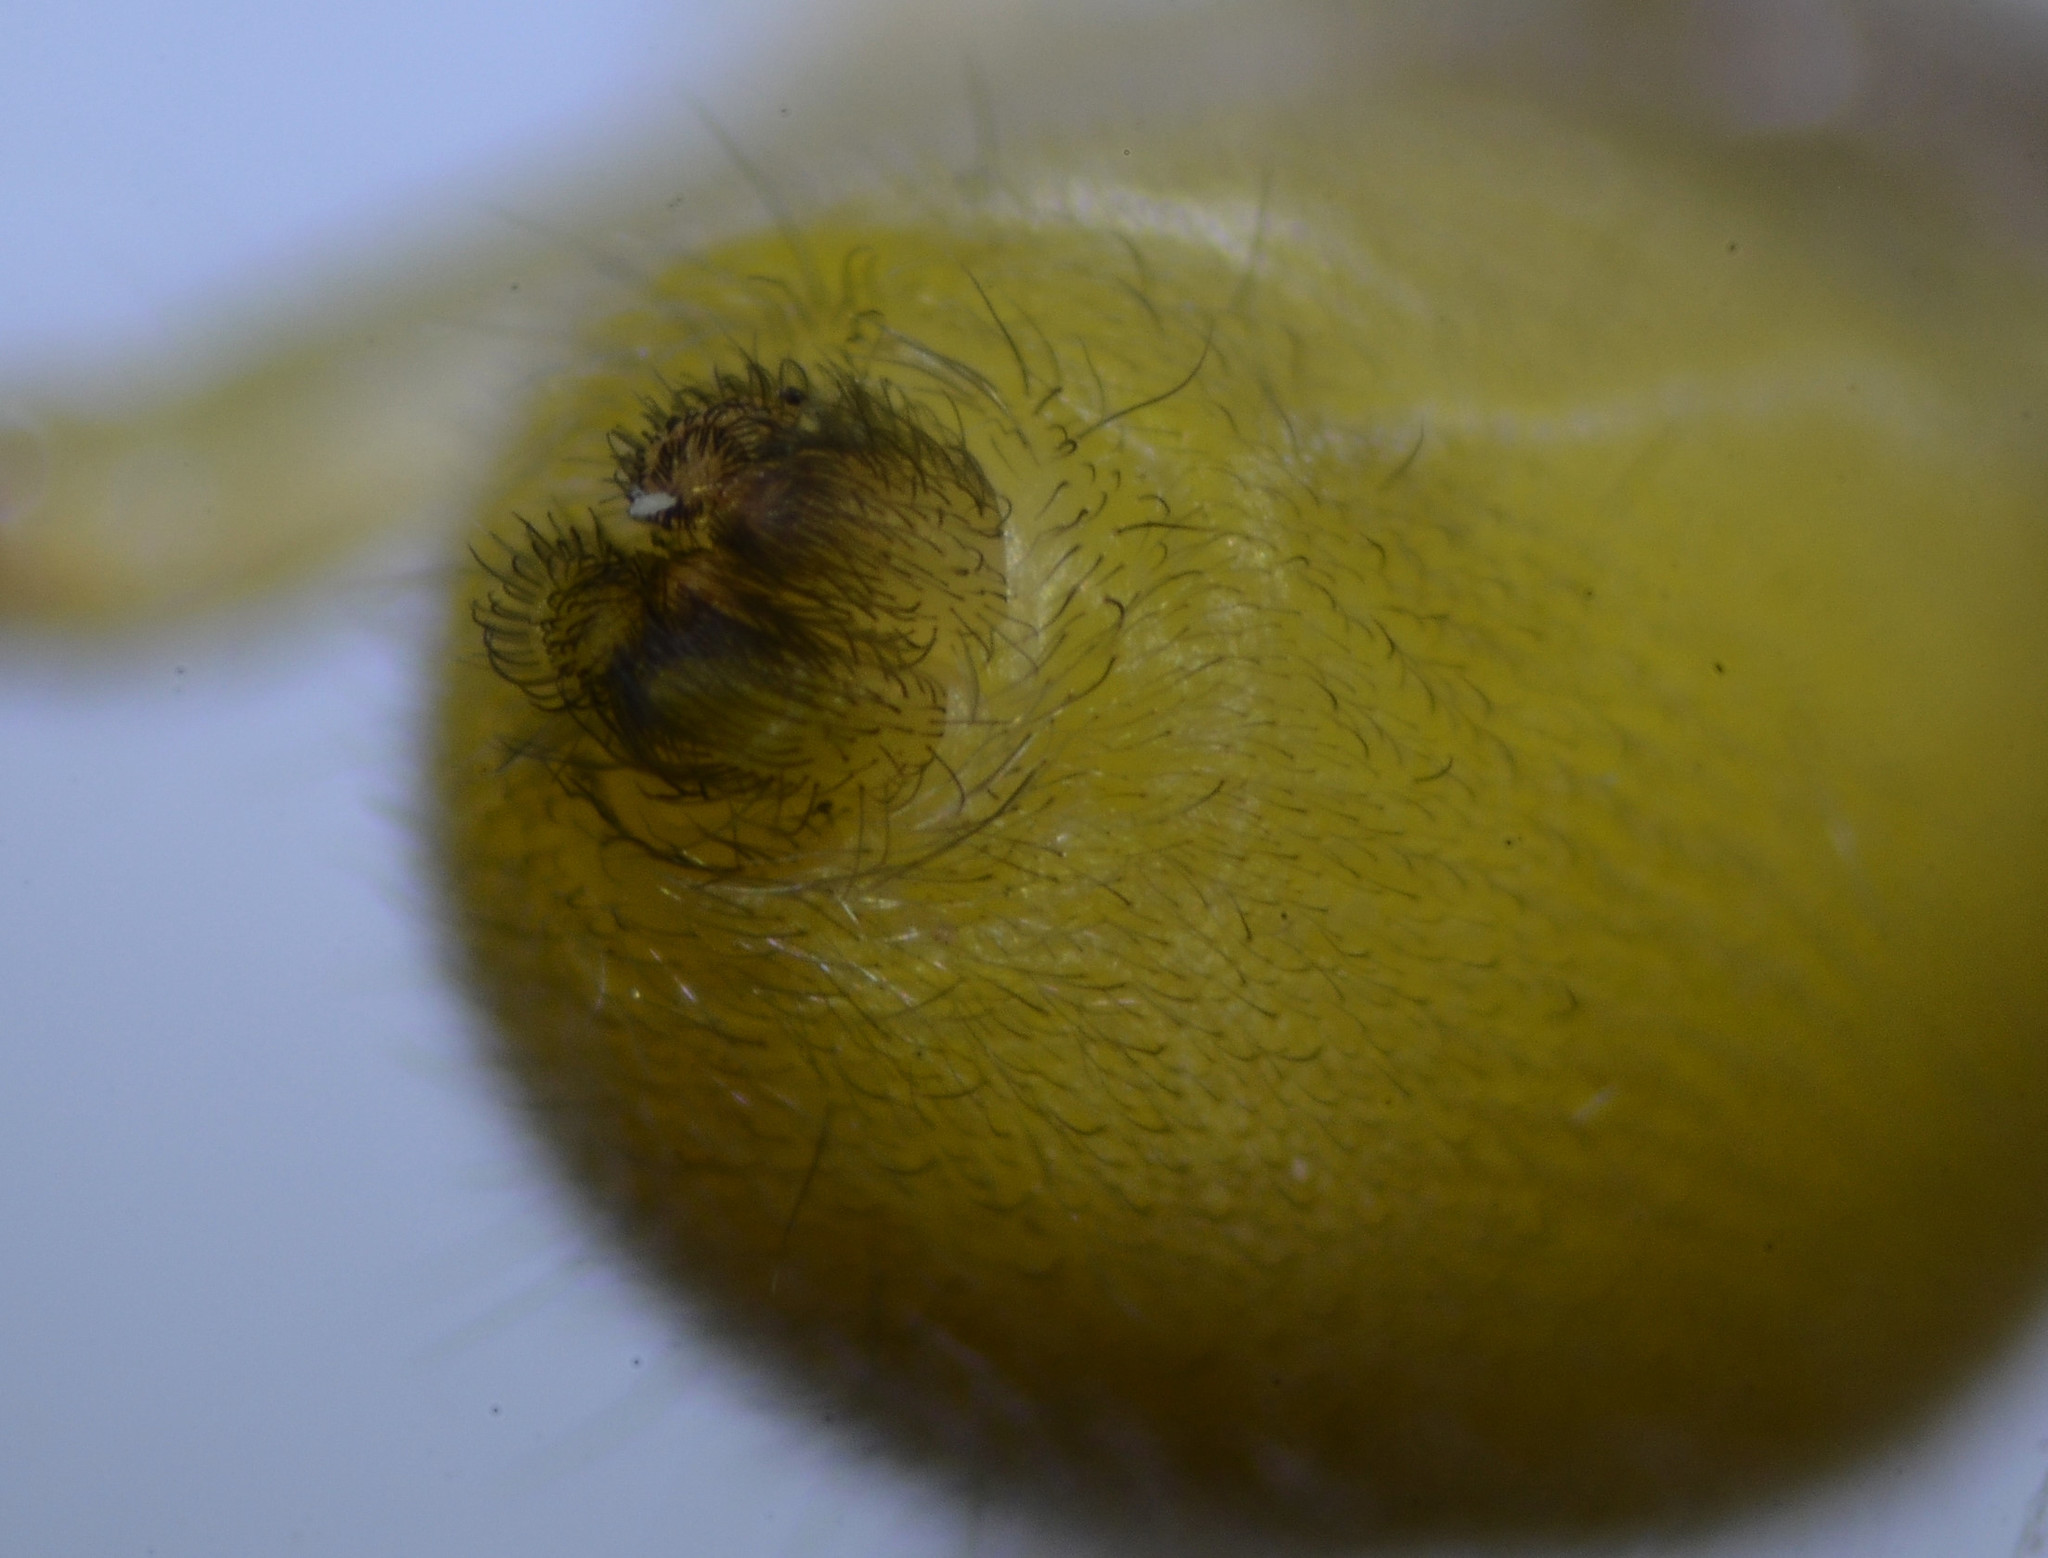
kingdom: Animalia
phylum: Arthropoda
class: Arachnida
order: Araneae
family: Cheiracanthiidae
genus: Cheiracanthium
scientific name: Cheiracanthium mildei
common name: Northern yellow sac spider
